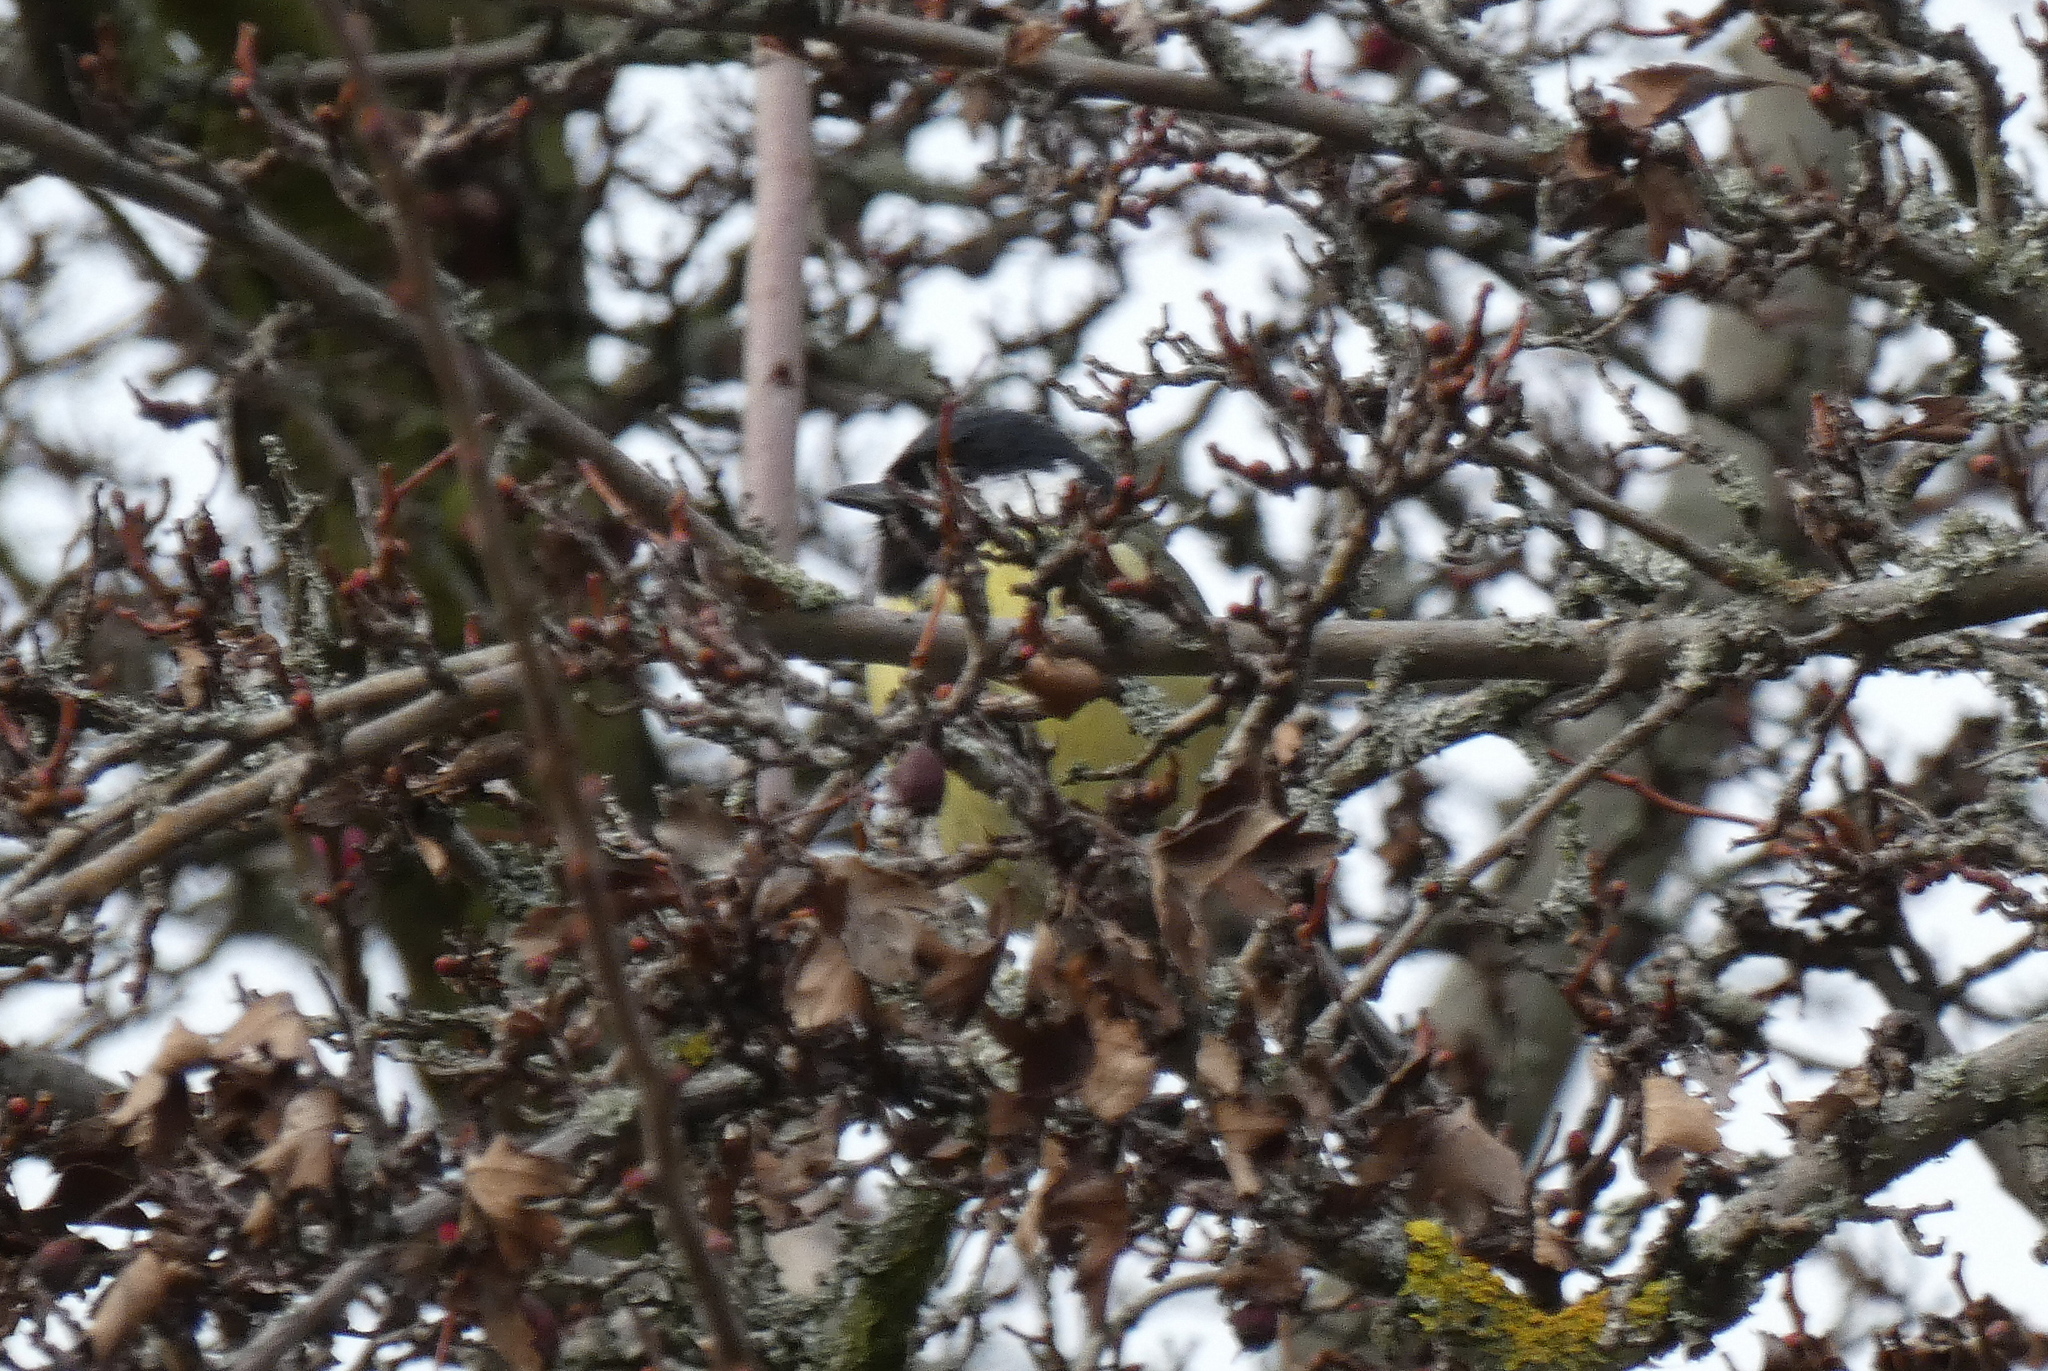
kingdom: Animalia
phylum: Chordata
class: Aves
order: Passeriformes
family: Paridae
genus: Parus
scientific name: Parus major
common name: Great tit
